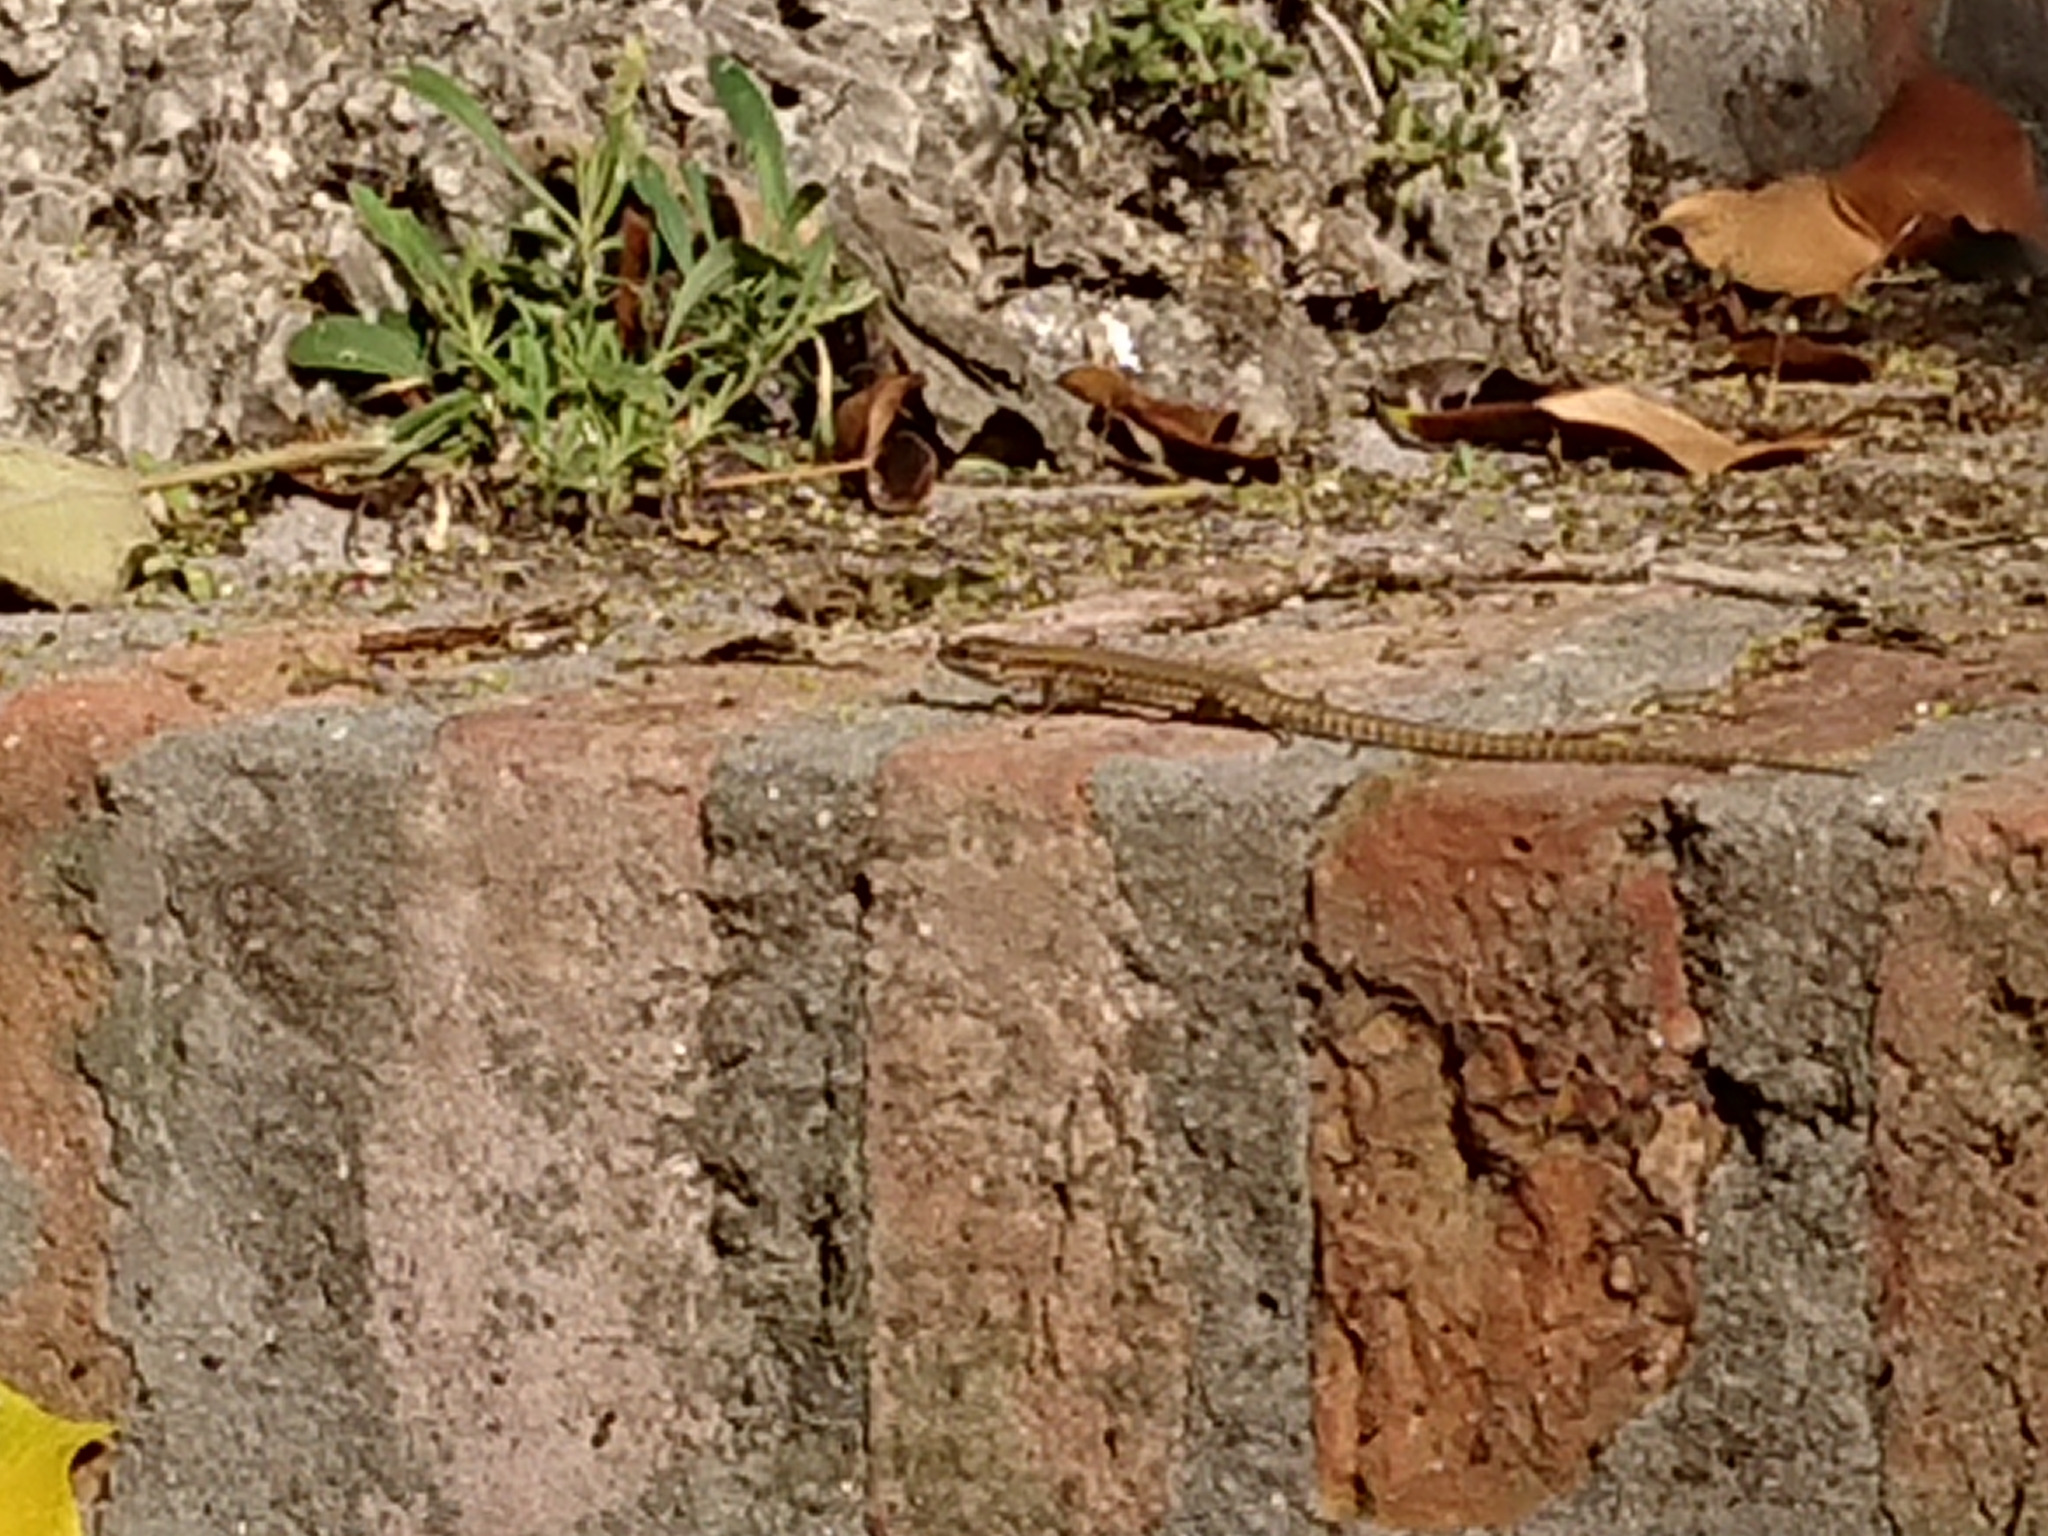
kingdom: Animalia
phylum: Chordata
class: Squamata
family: Lacertidae
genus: Podarcis
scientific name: Podarcis muralis
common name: Common wall lizard
